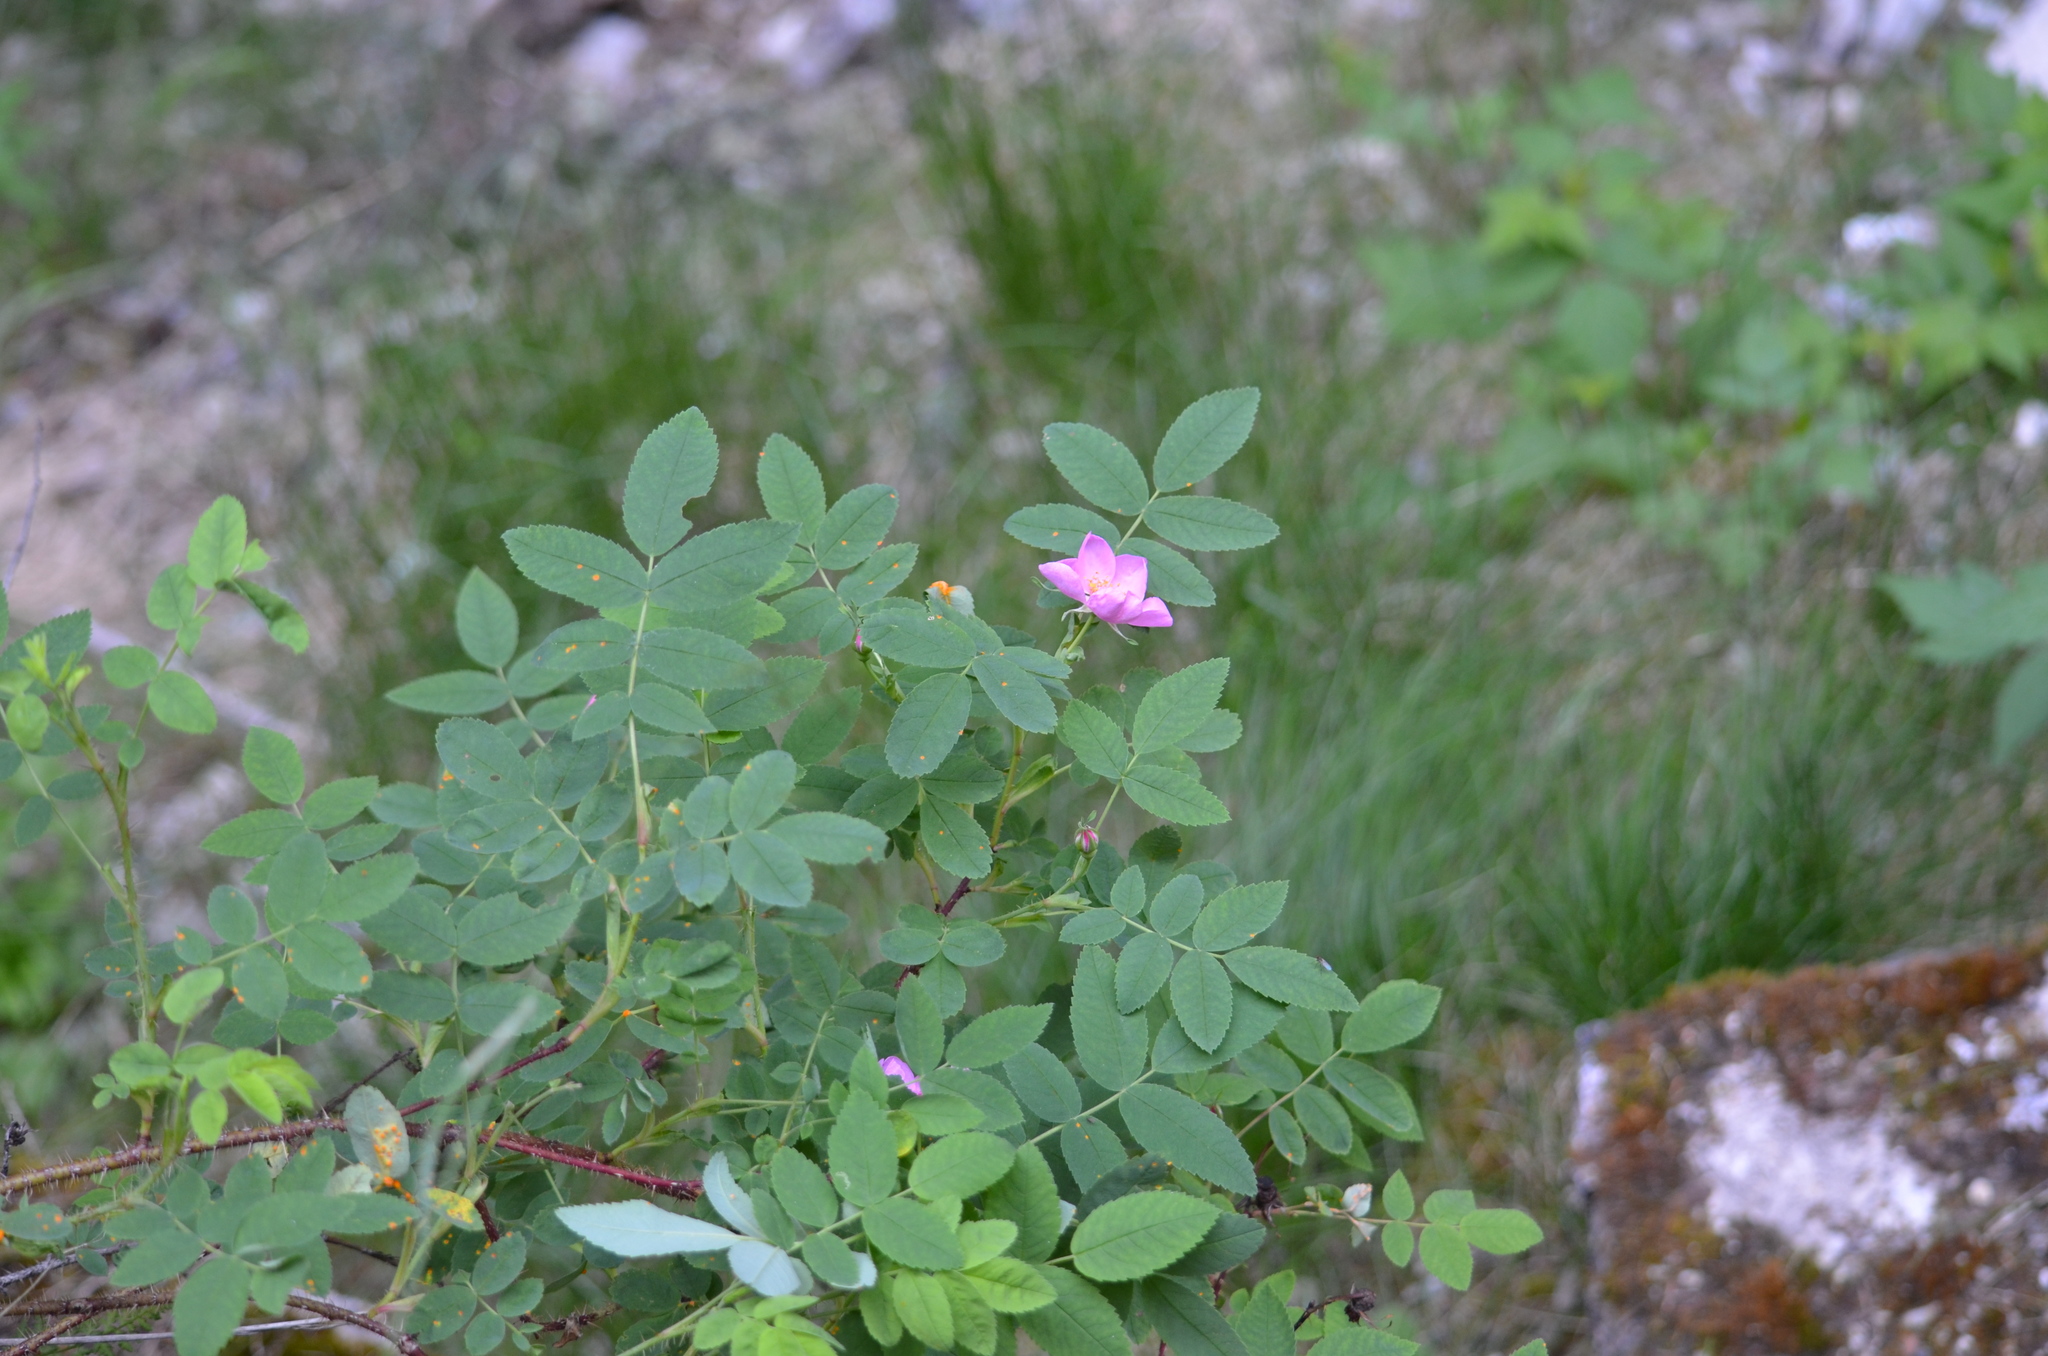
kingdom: Plantae
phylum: Tracheophyta
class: Magnoliopsida
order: Rosales
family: Rosaceae
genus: Rosa
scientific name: Rosa acicularis
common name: Prickly rose
